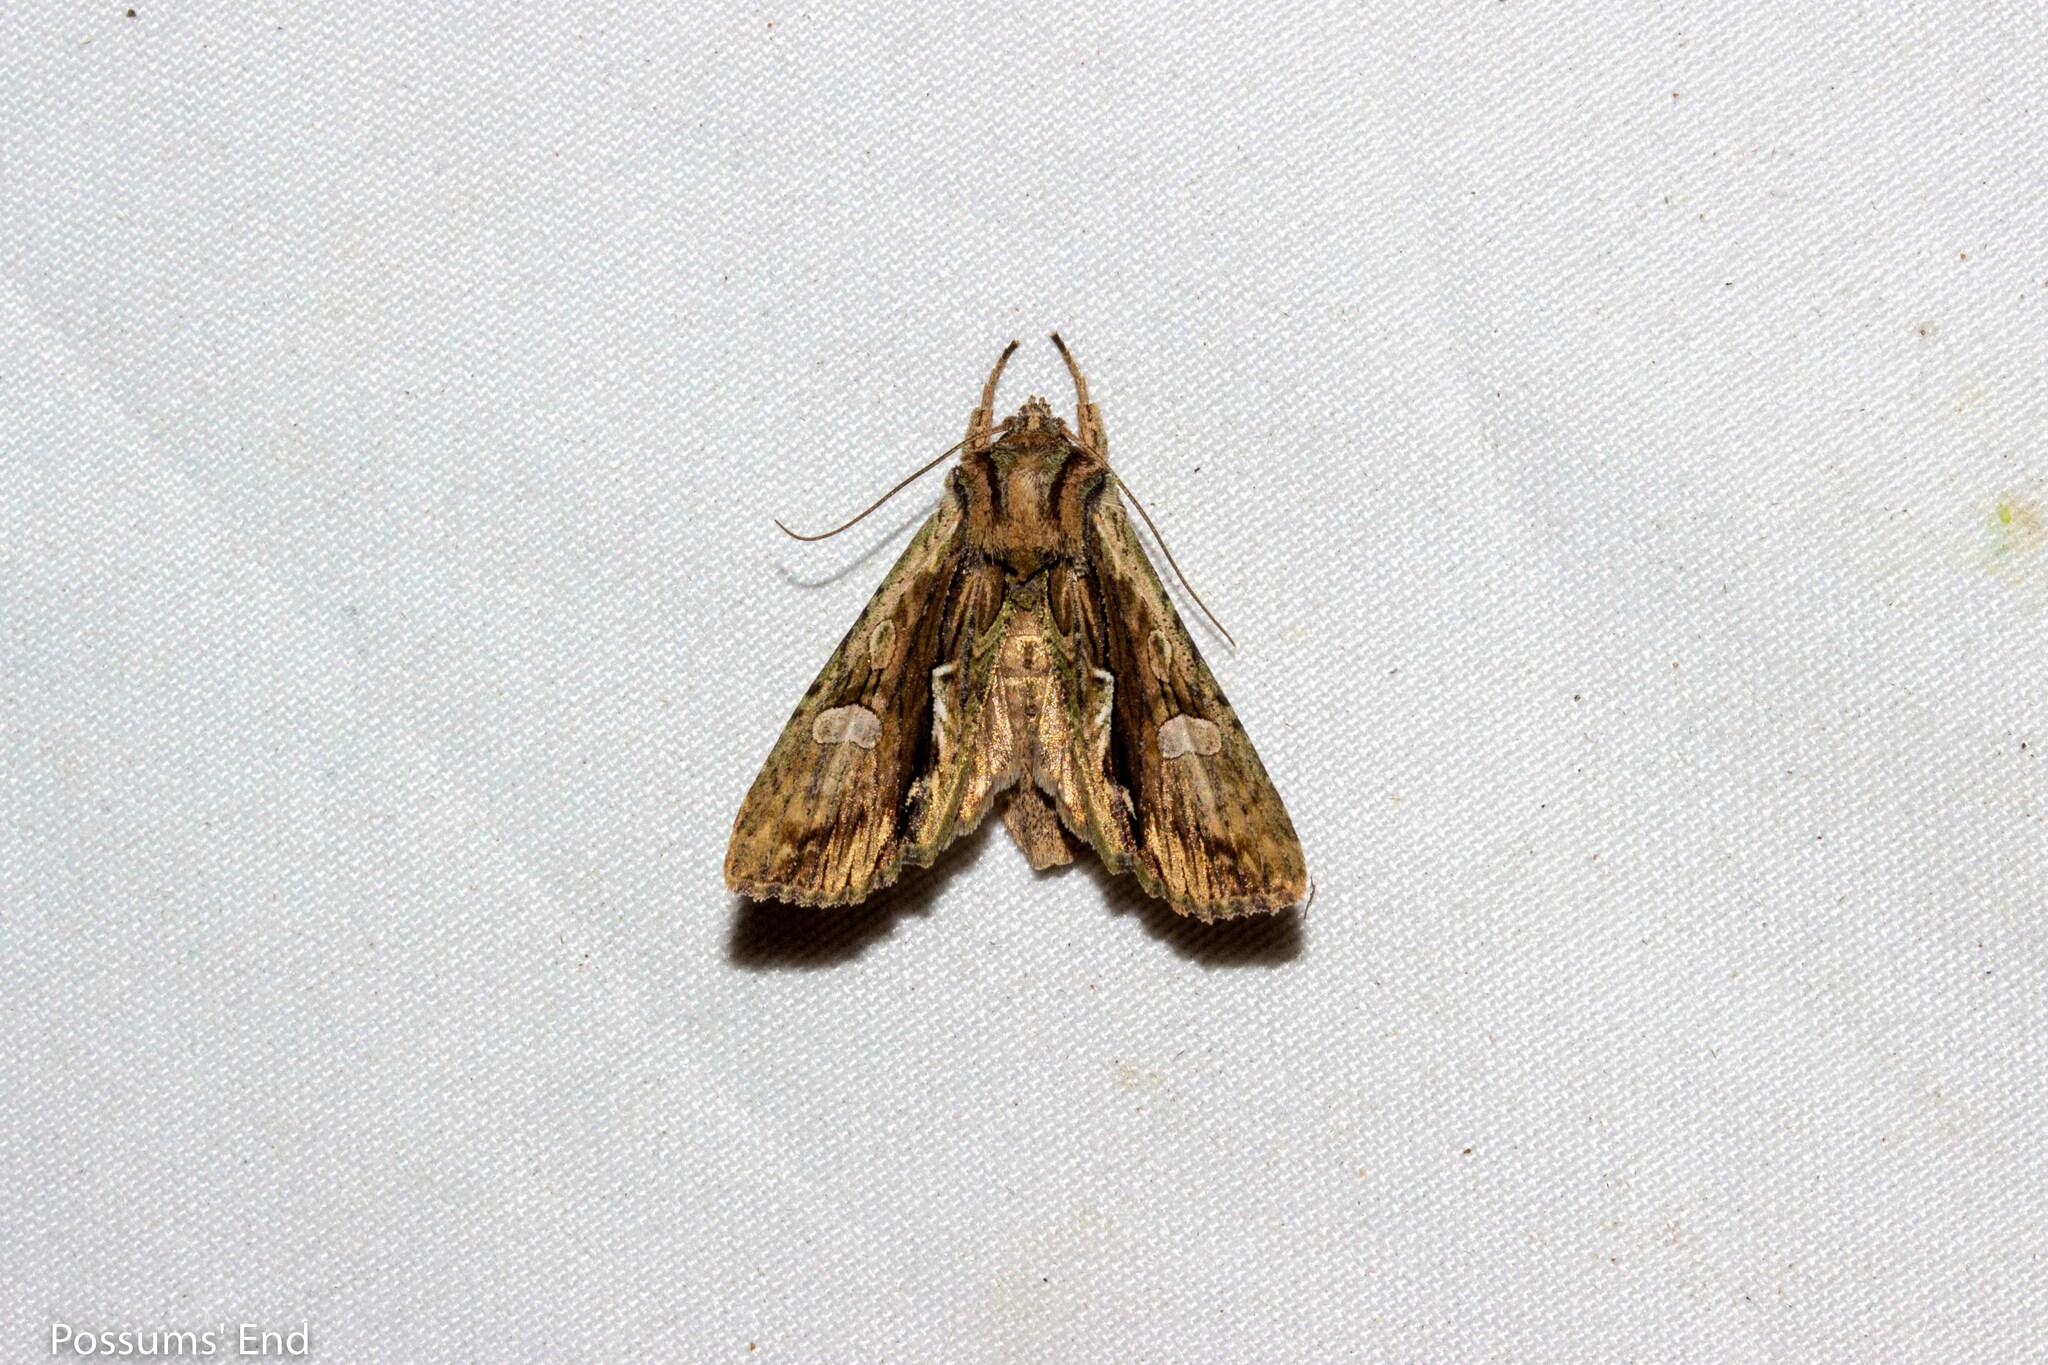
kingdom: Animalia
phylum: Arthropoda
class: Insecta
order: Lepidoptera
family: Noctuidae
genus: Meterana
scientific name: Meterana decorata
